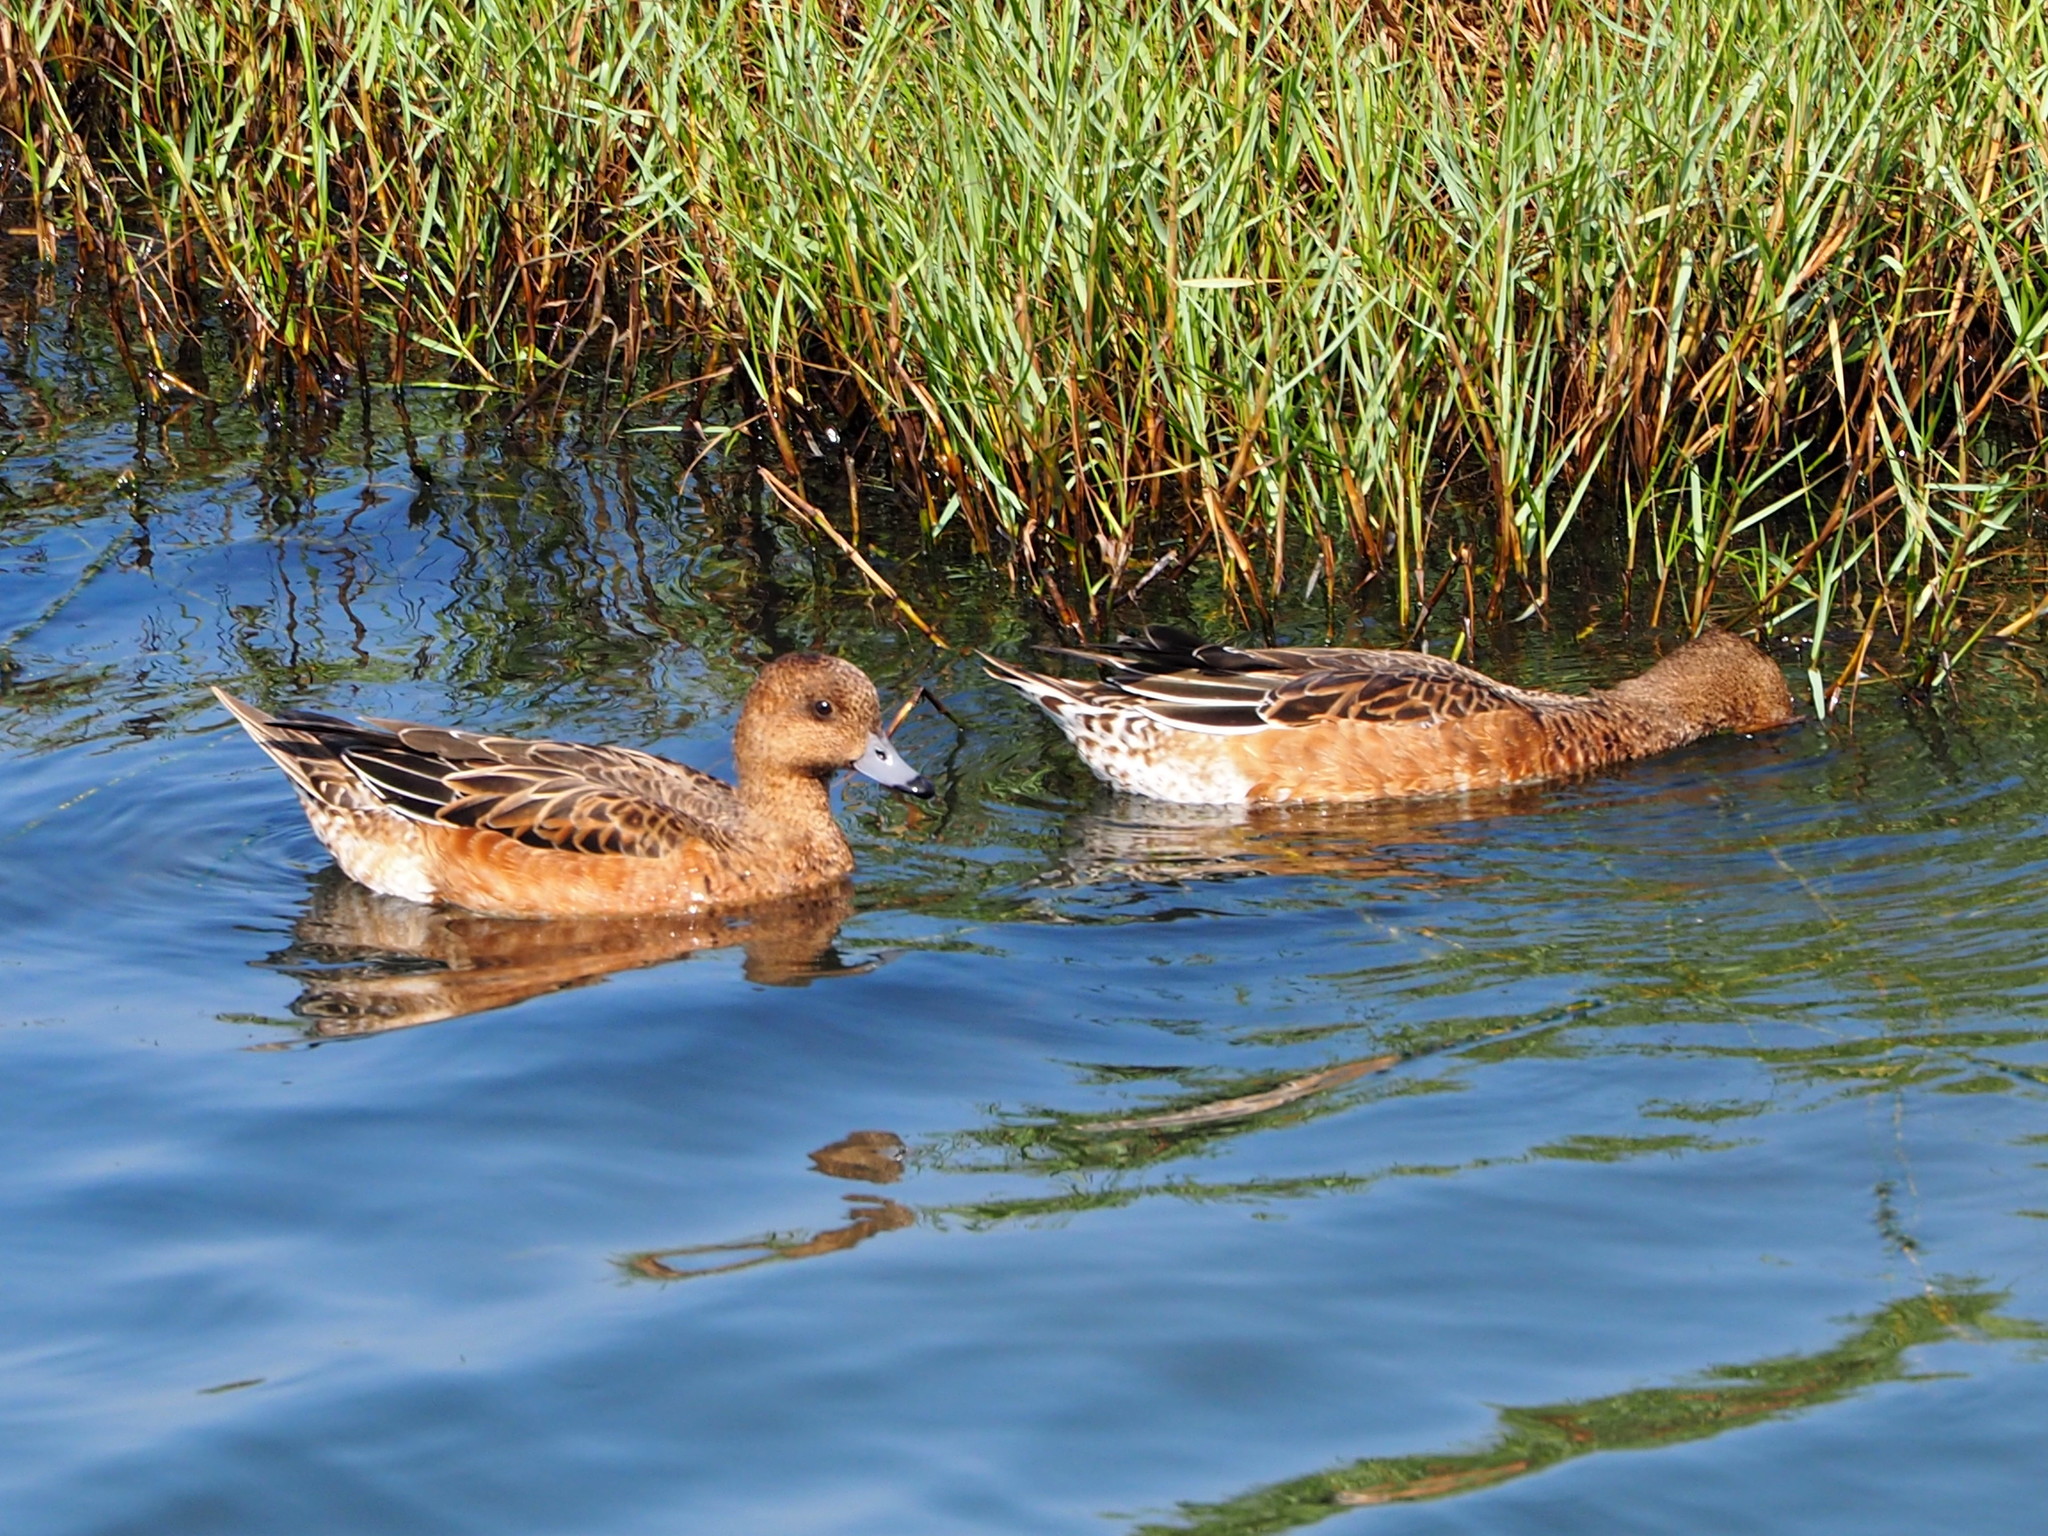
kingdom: Animalia
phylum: Chordata
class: Aves
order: Anseriformes
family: Anatidae
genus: Mareca
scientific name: Mareca penelope
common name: Eurasian wigeon
